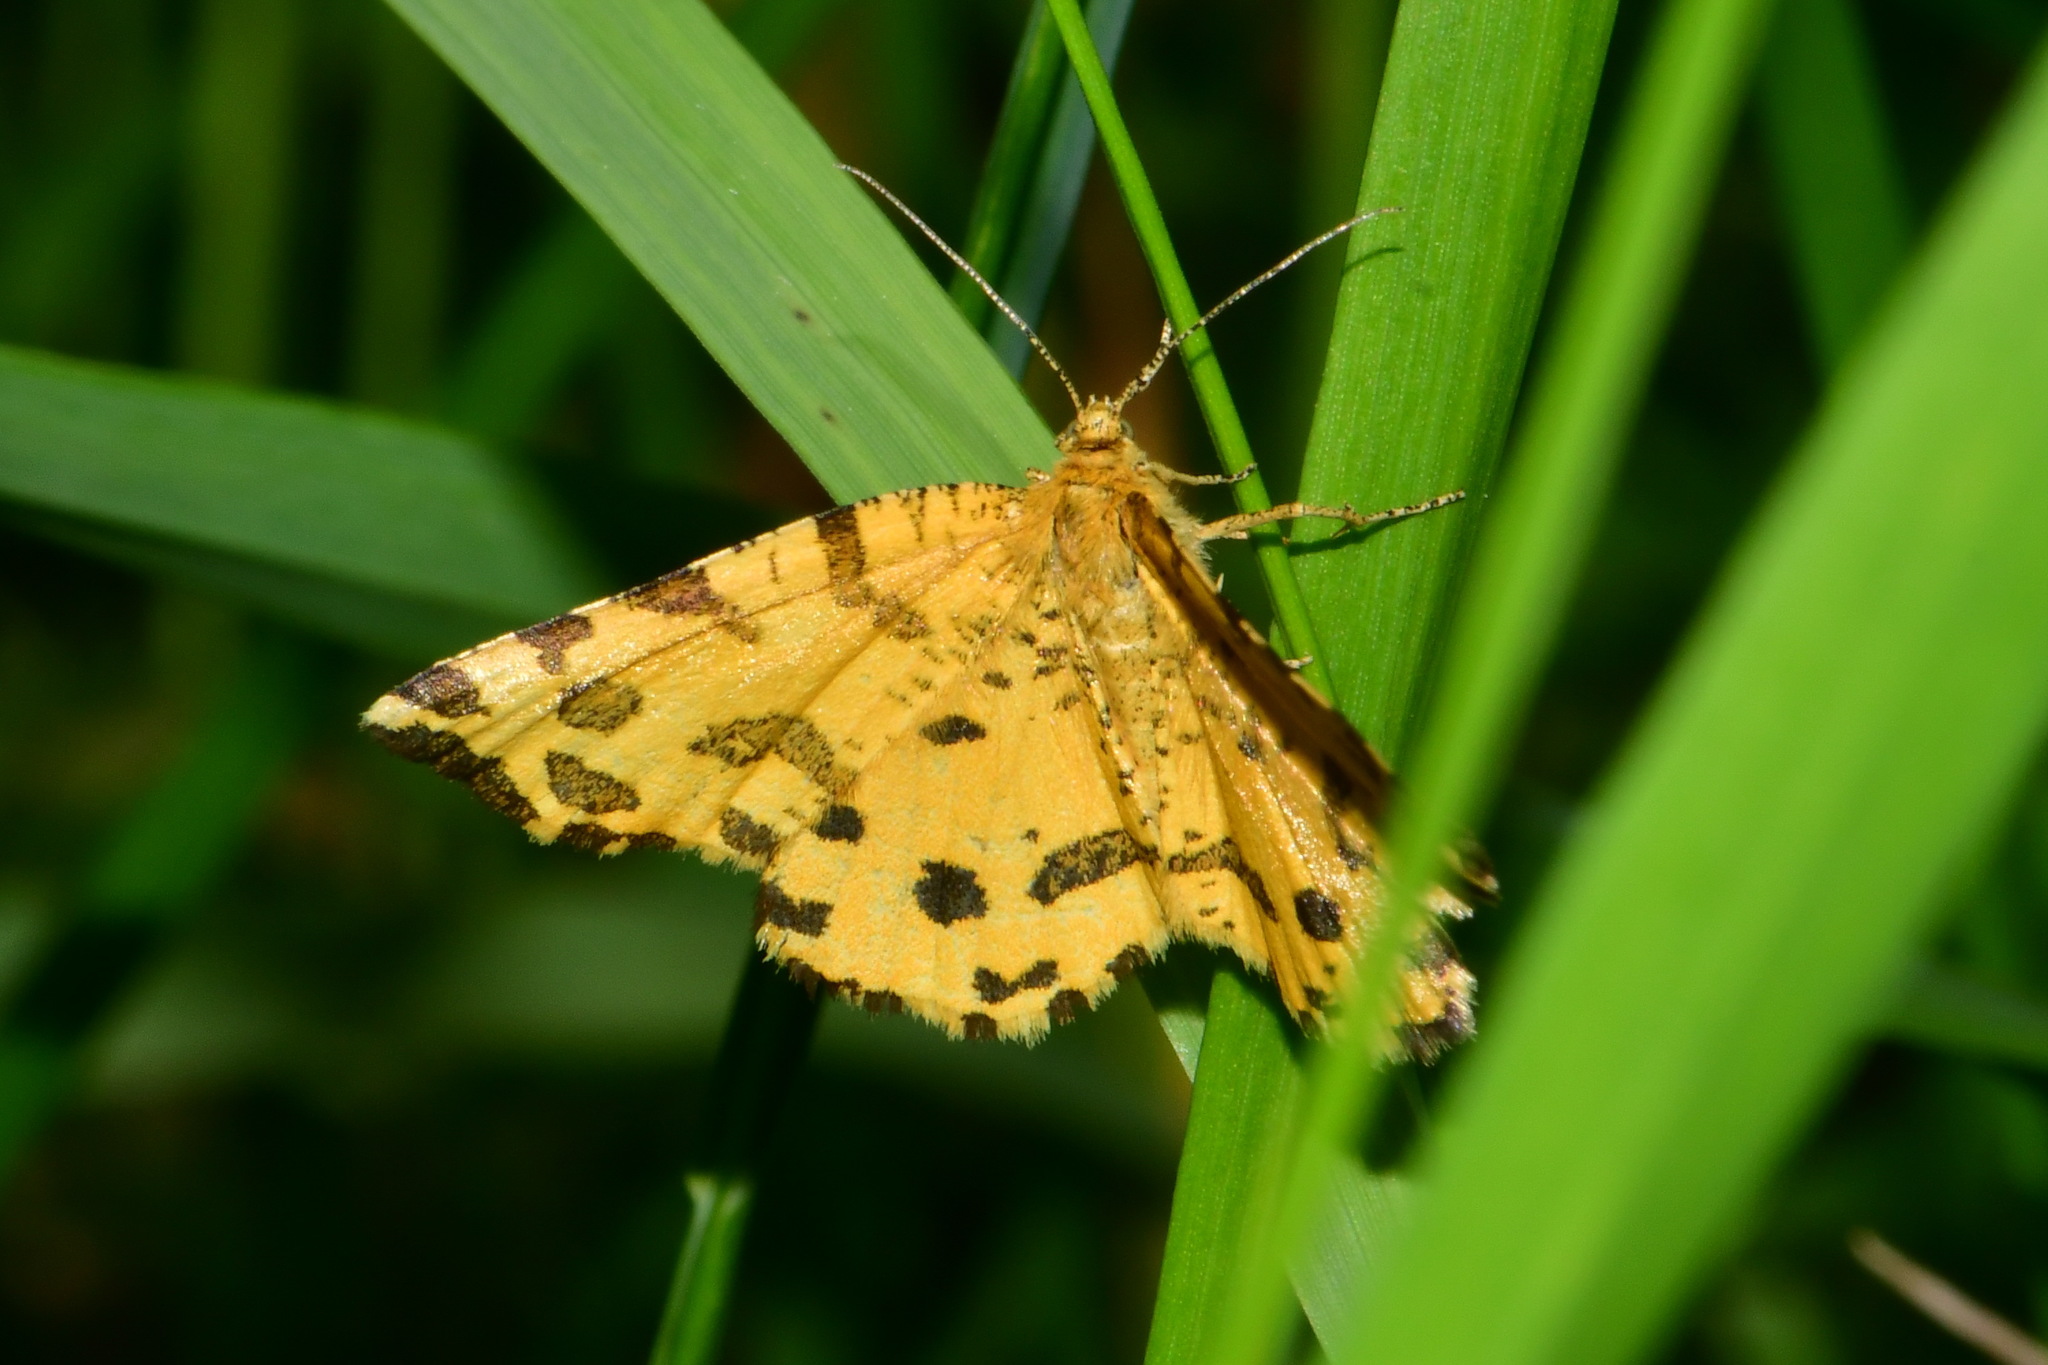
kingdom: Animalia
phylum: Arthropoda
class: Insecta
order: Lepidoptera
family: Geometridae
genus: Pseudopanthera
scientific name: Pseudopanthera macularia
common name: Speckled yellow
